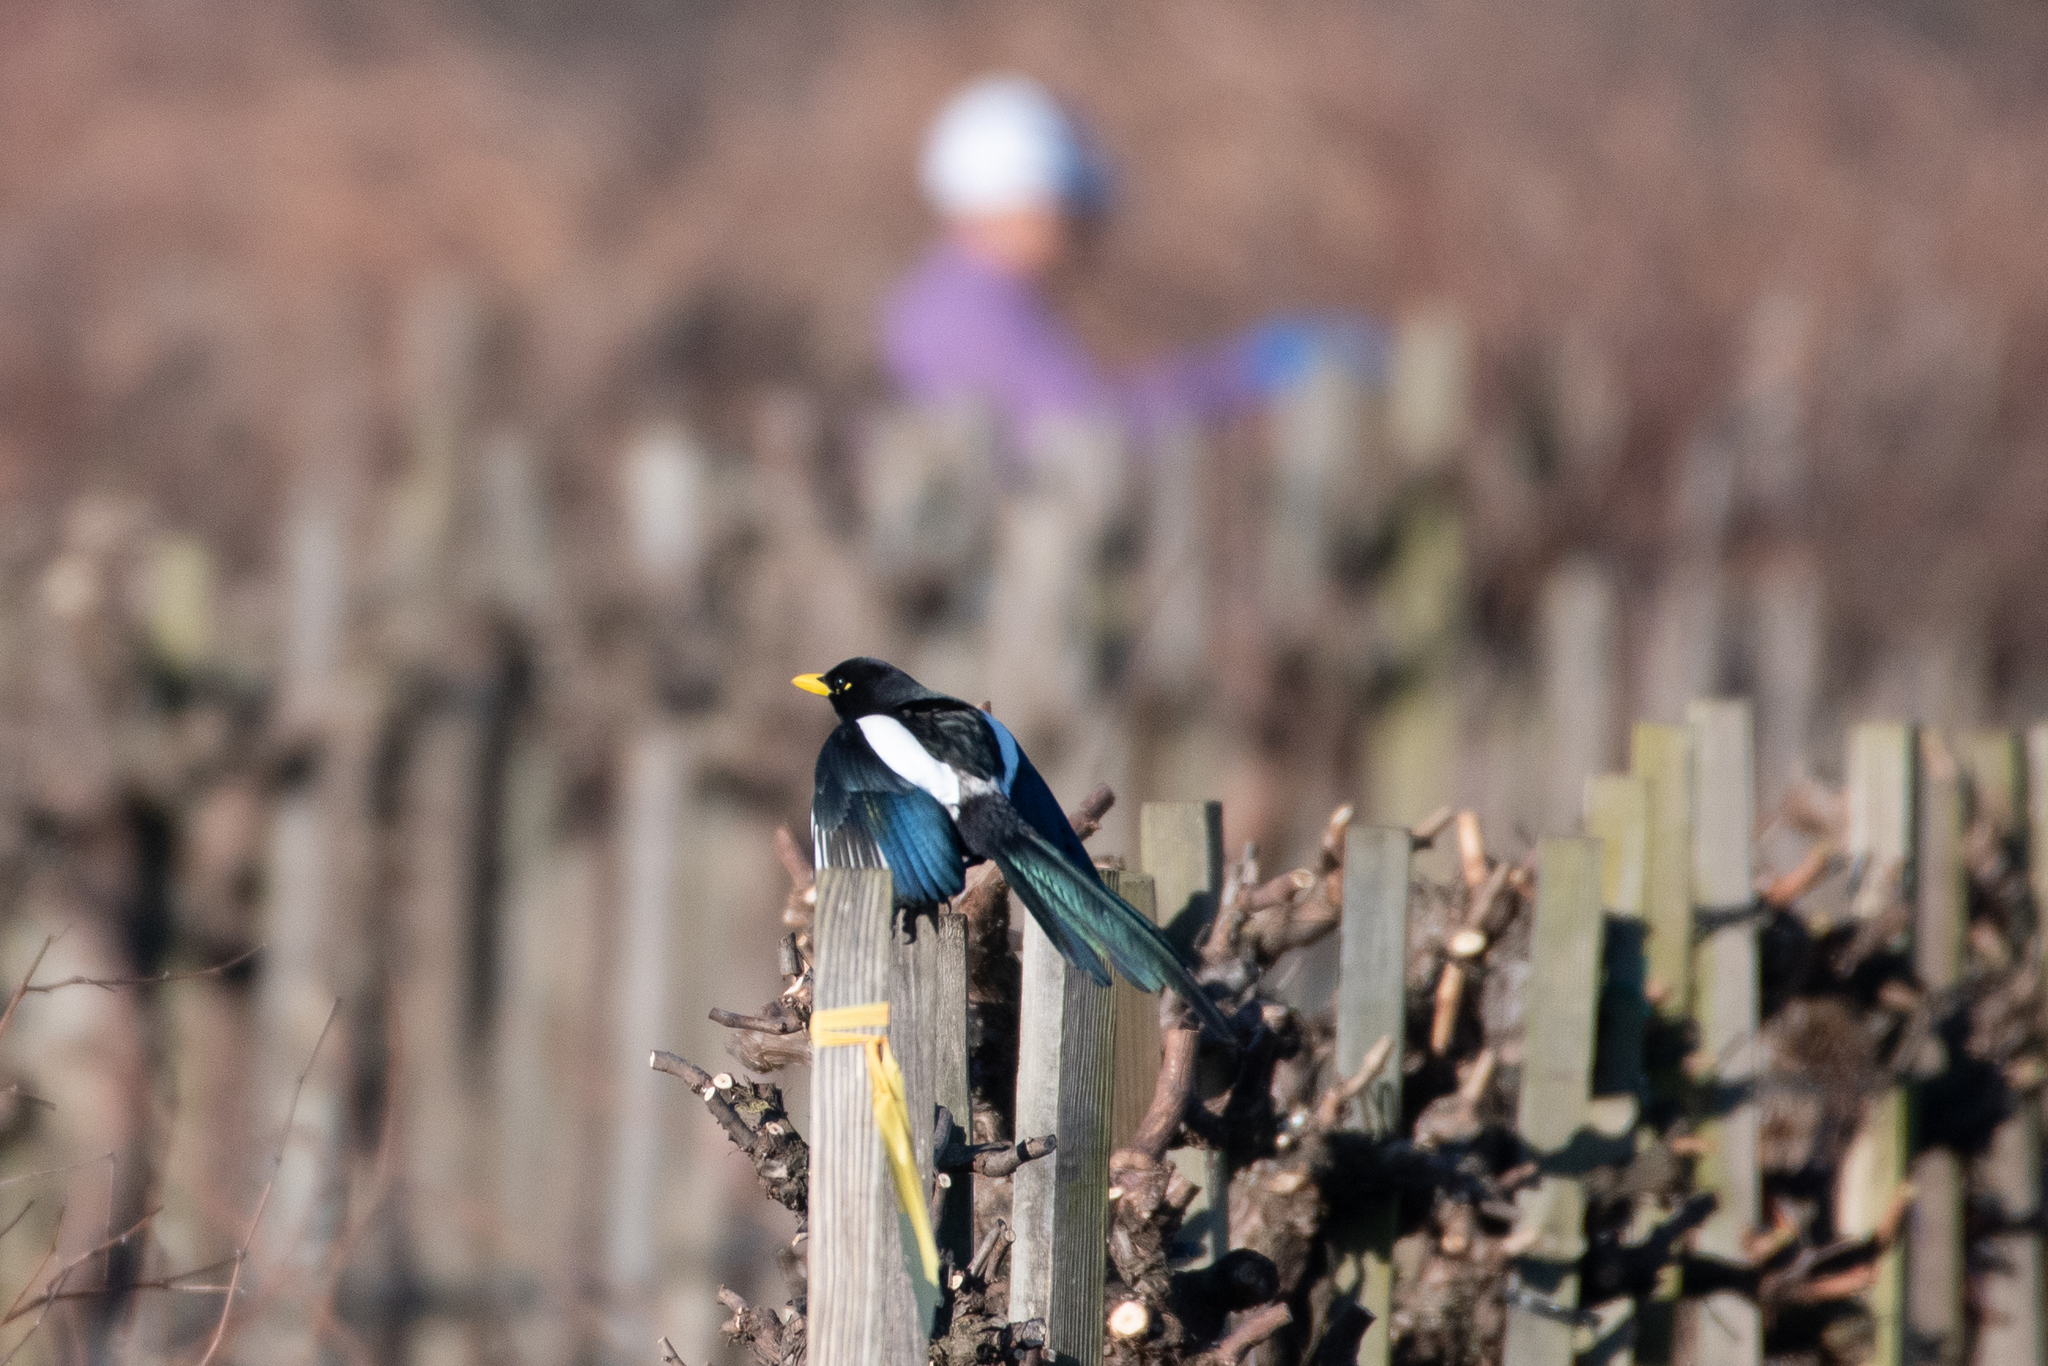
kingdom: Animalia
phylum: Chordata
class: Aves
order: Passeriformes
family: Corvidae
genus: Pica
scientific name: Pica nuttalli
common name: Yellow-billed magpie
